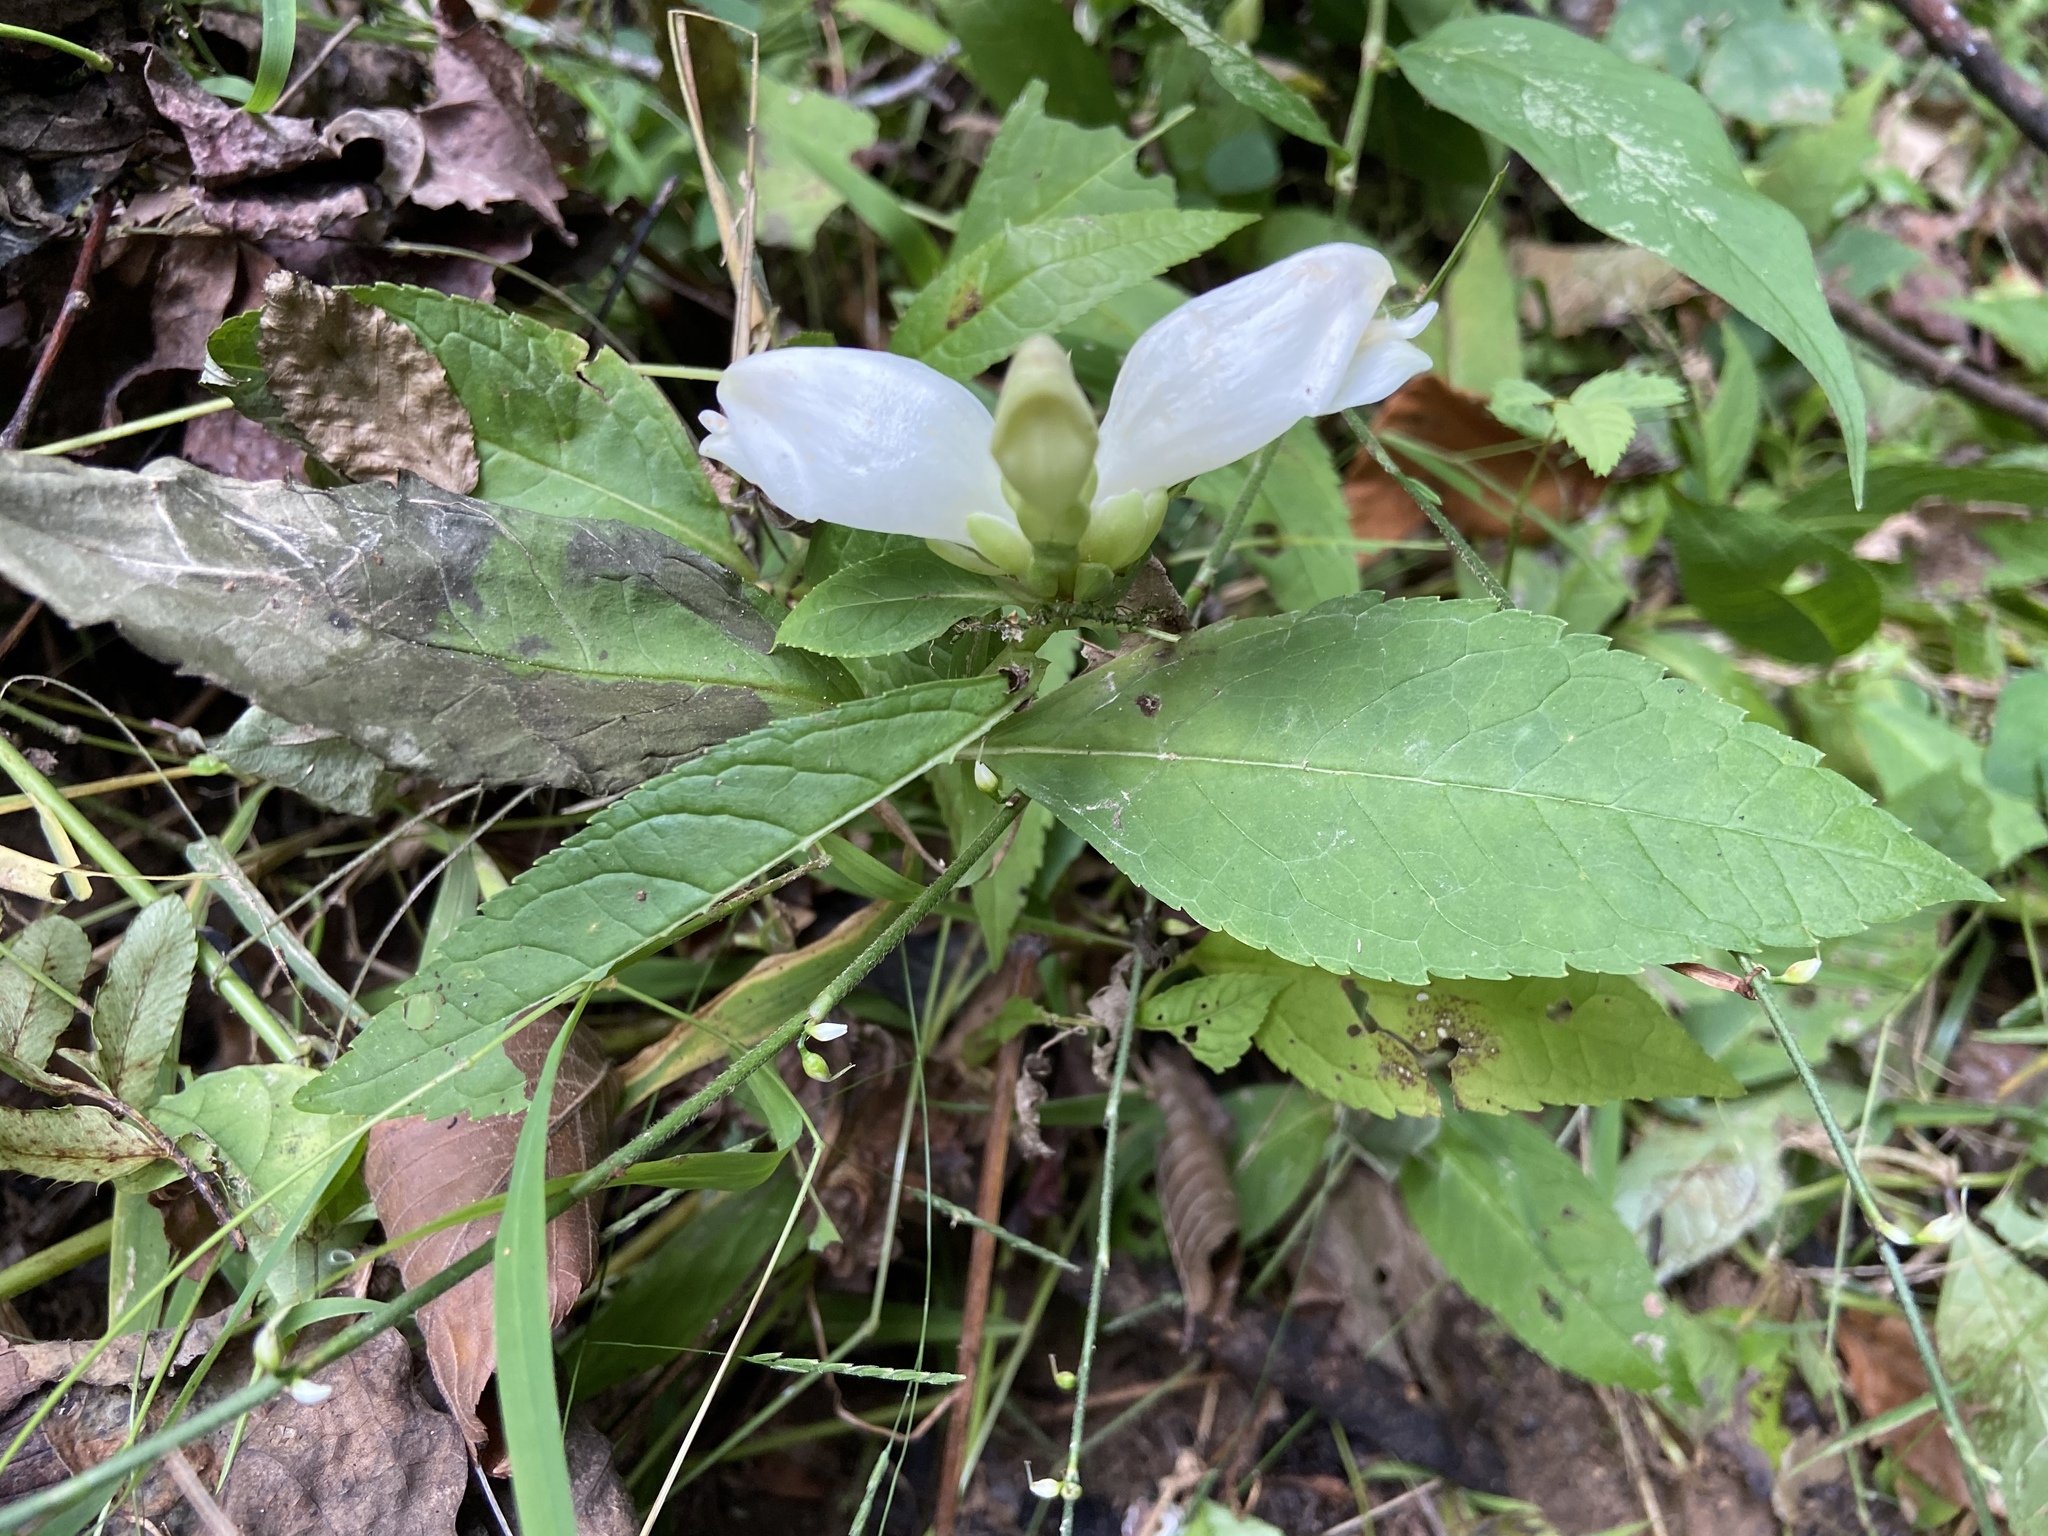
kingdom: Plantae
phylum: Tracheophyta
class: Magnoliopsida
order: Lamiales
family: Plantaginaceae
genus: Chelone
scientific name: Chelone glabra
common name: Snakehead
